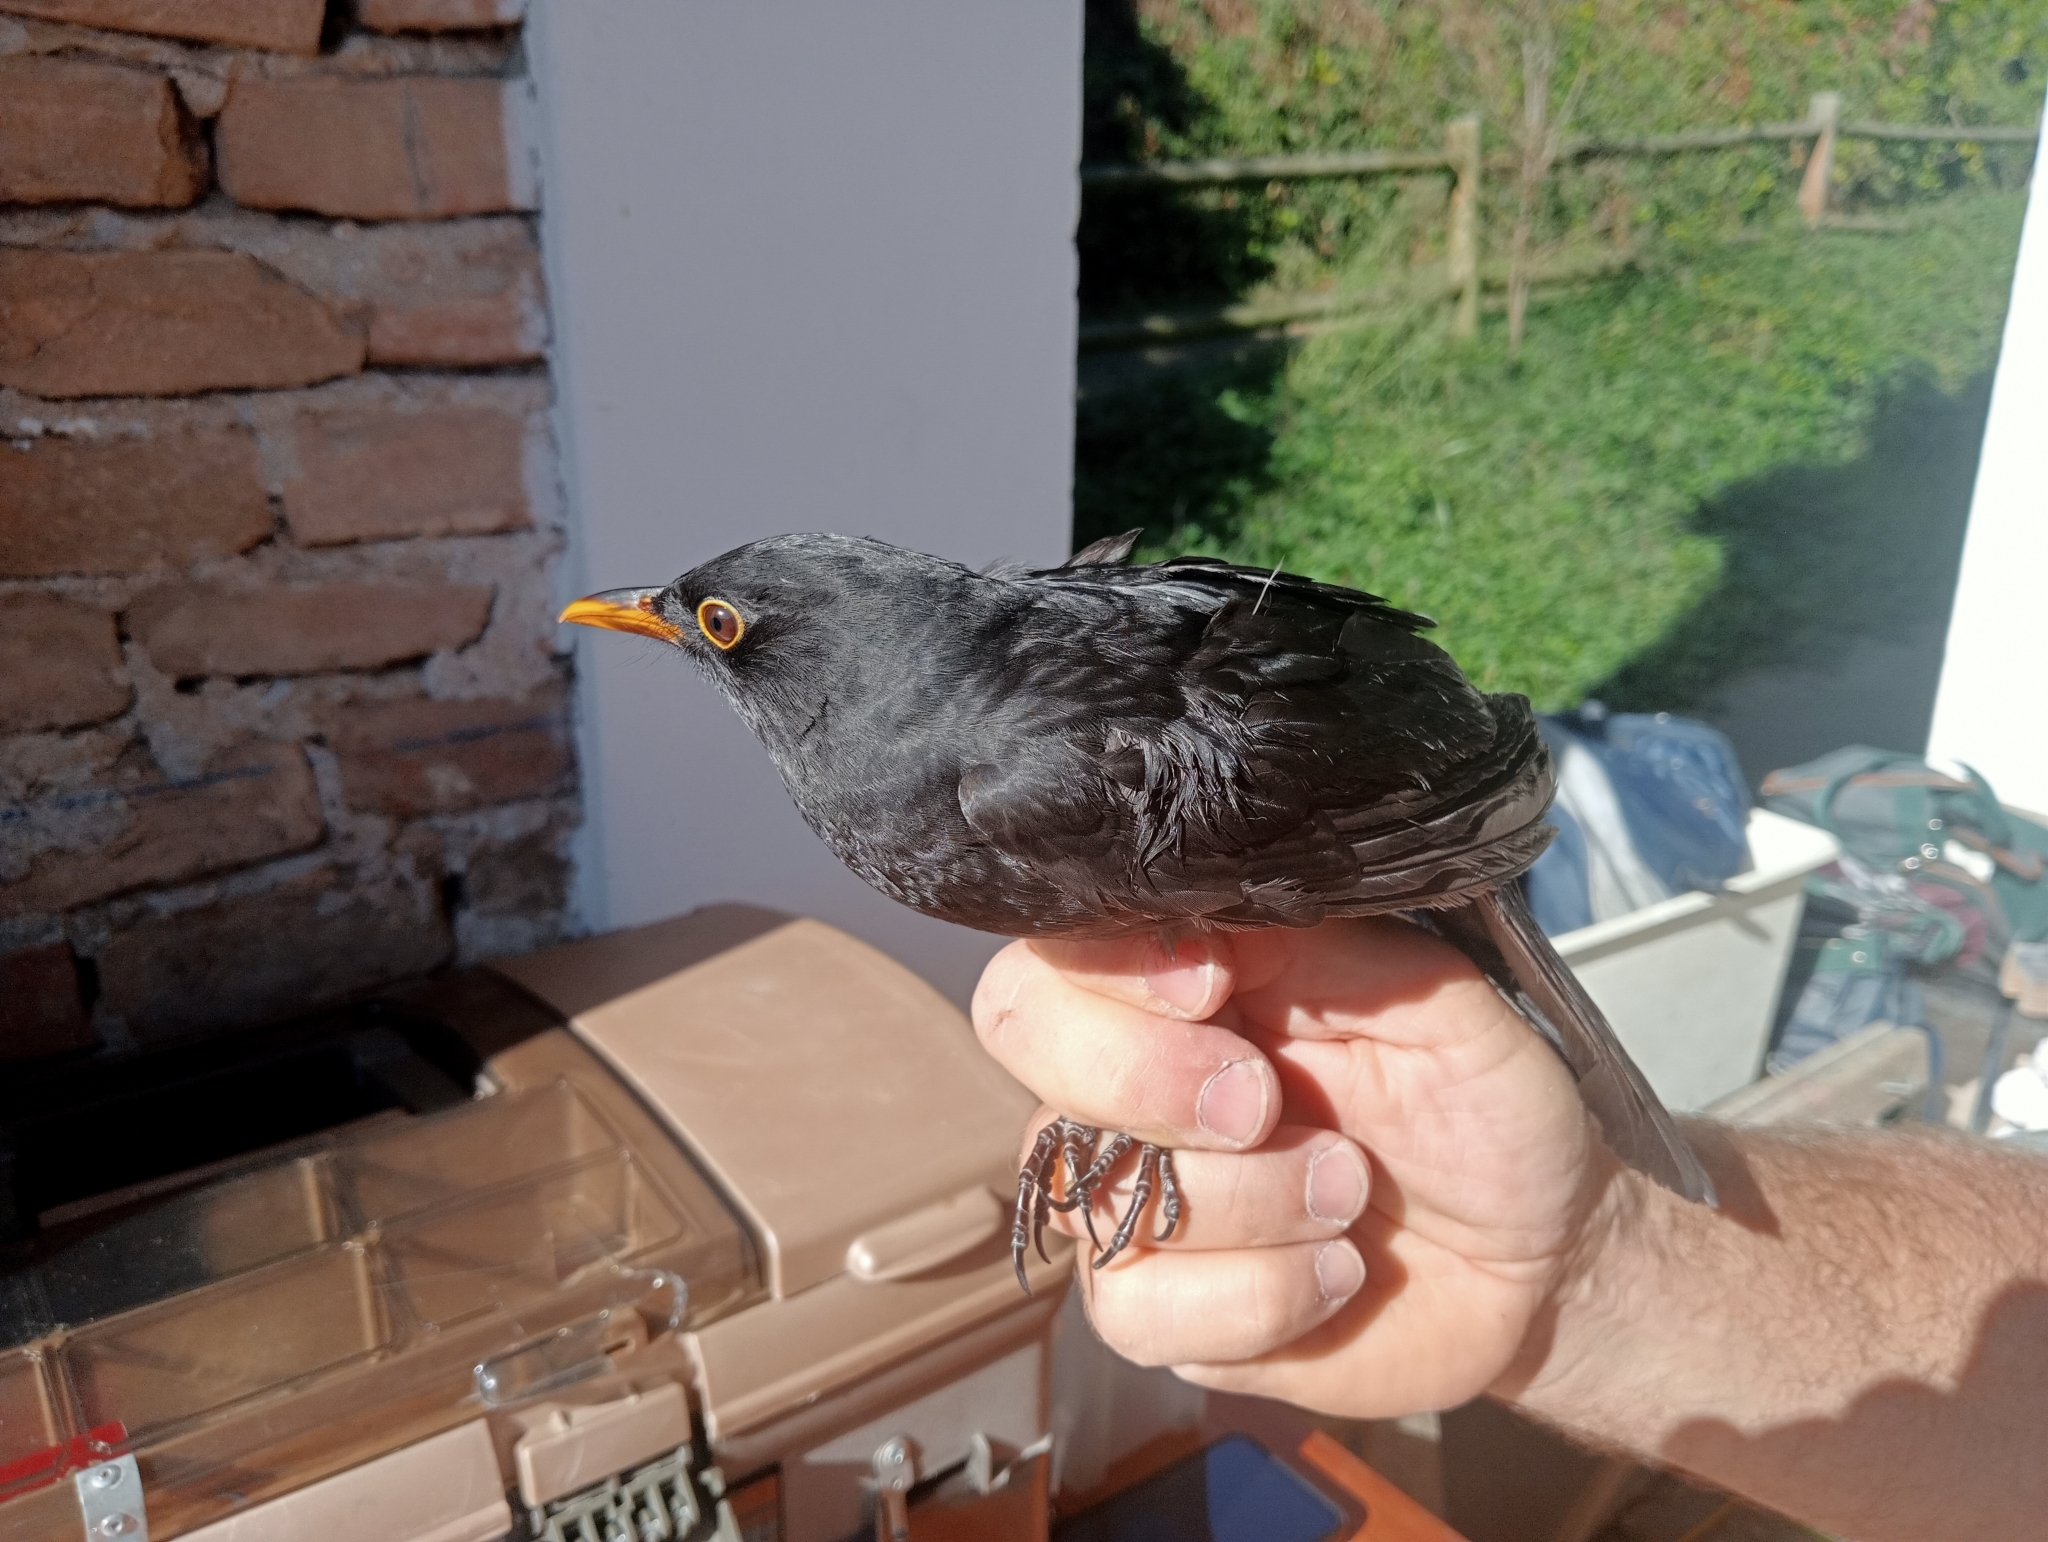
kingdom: Animalia
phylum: Chordata
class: Aves
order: Passeriformes
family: Turdidae
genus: Turdus
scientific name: Turdus merula
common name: Common blackbird
